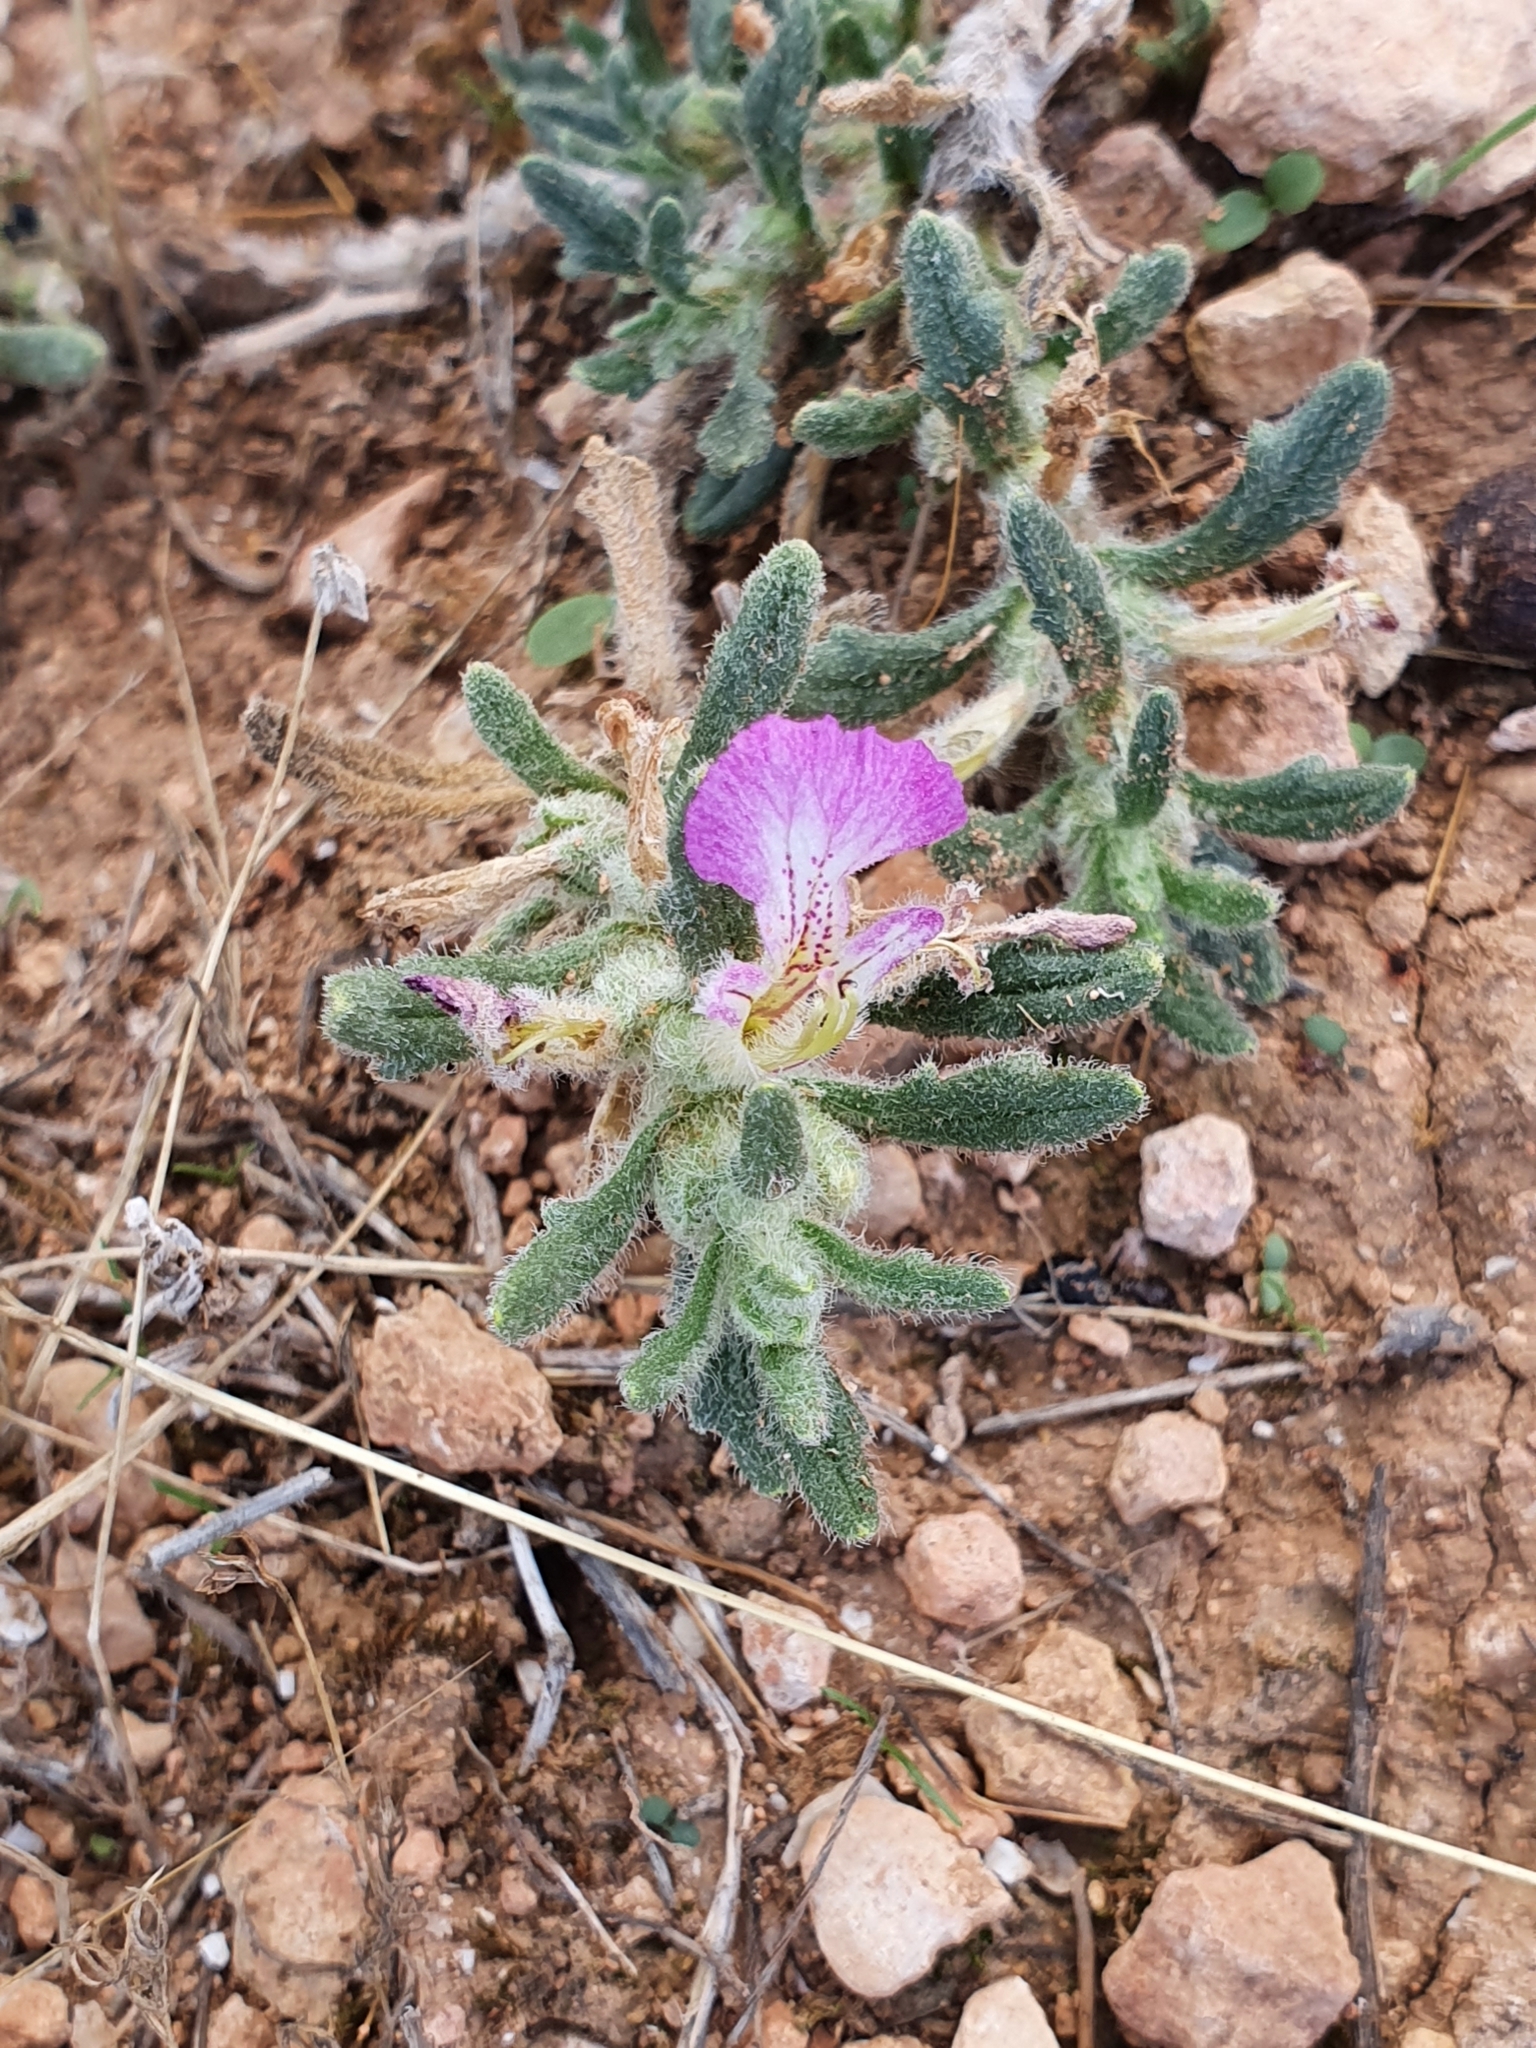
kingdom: Plantae
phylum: Tracheophyta
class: Magnoliopsida
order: Lamiales
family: Lamiaceae
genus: Ajuga
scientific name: Ajuga iva
